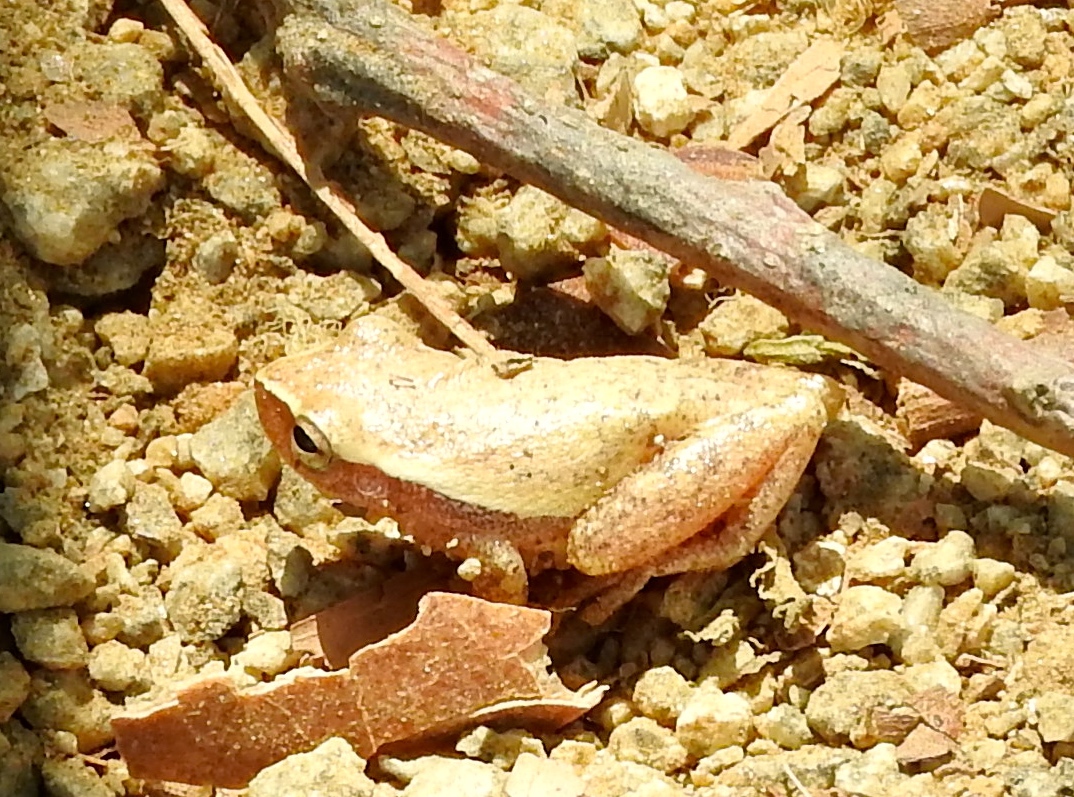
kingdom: Animalia
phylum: Chordata
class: Amphibia
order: Anura
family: Hylidae
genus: Tlalocohyla
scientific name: Tlalocohyla smithii
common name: Dwarf mexican treefrog
